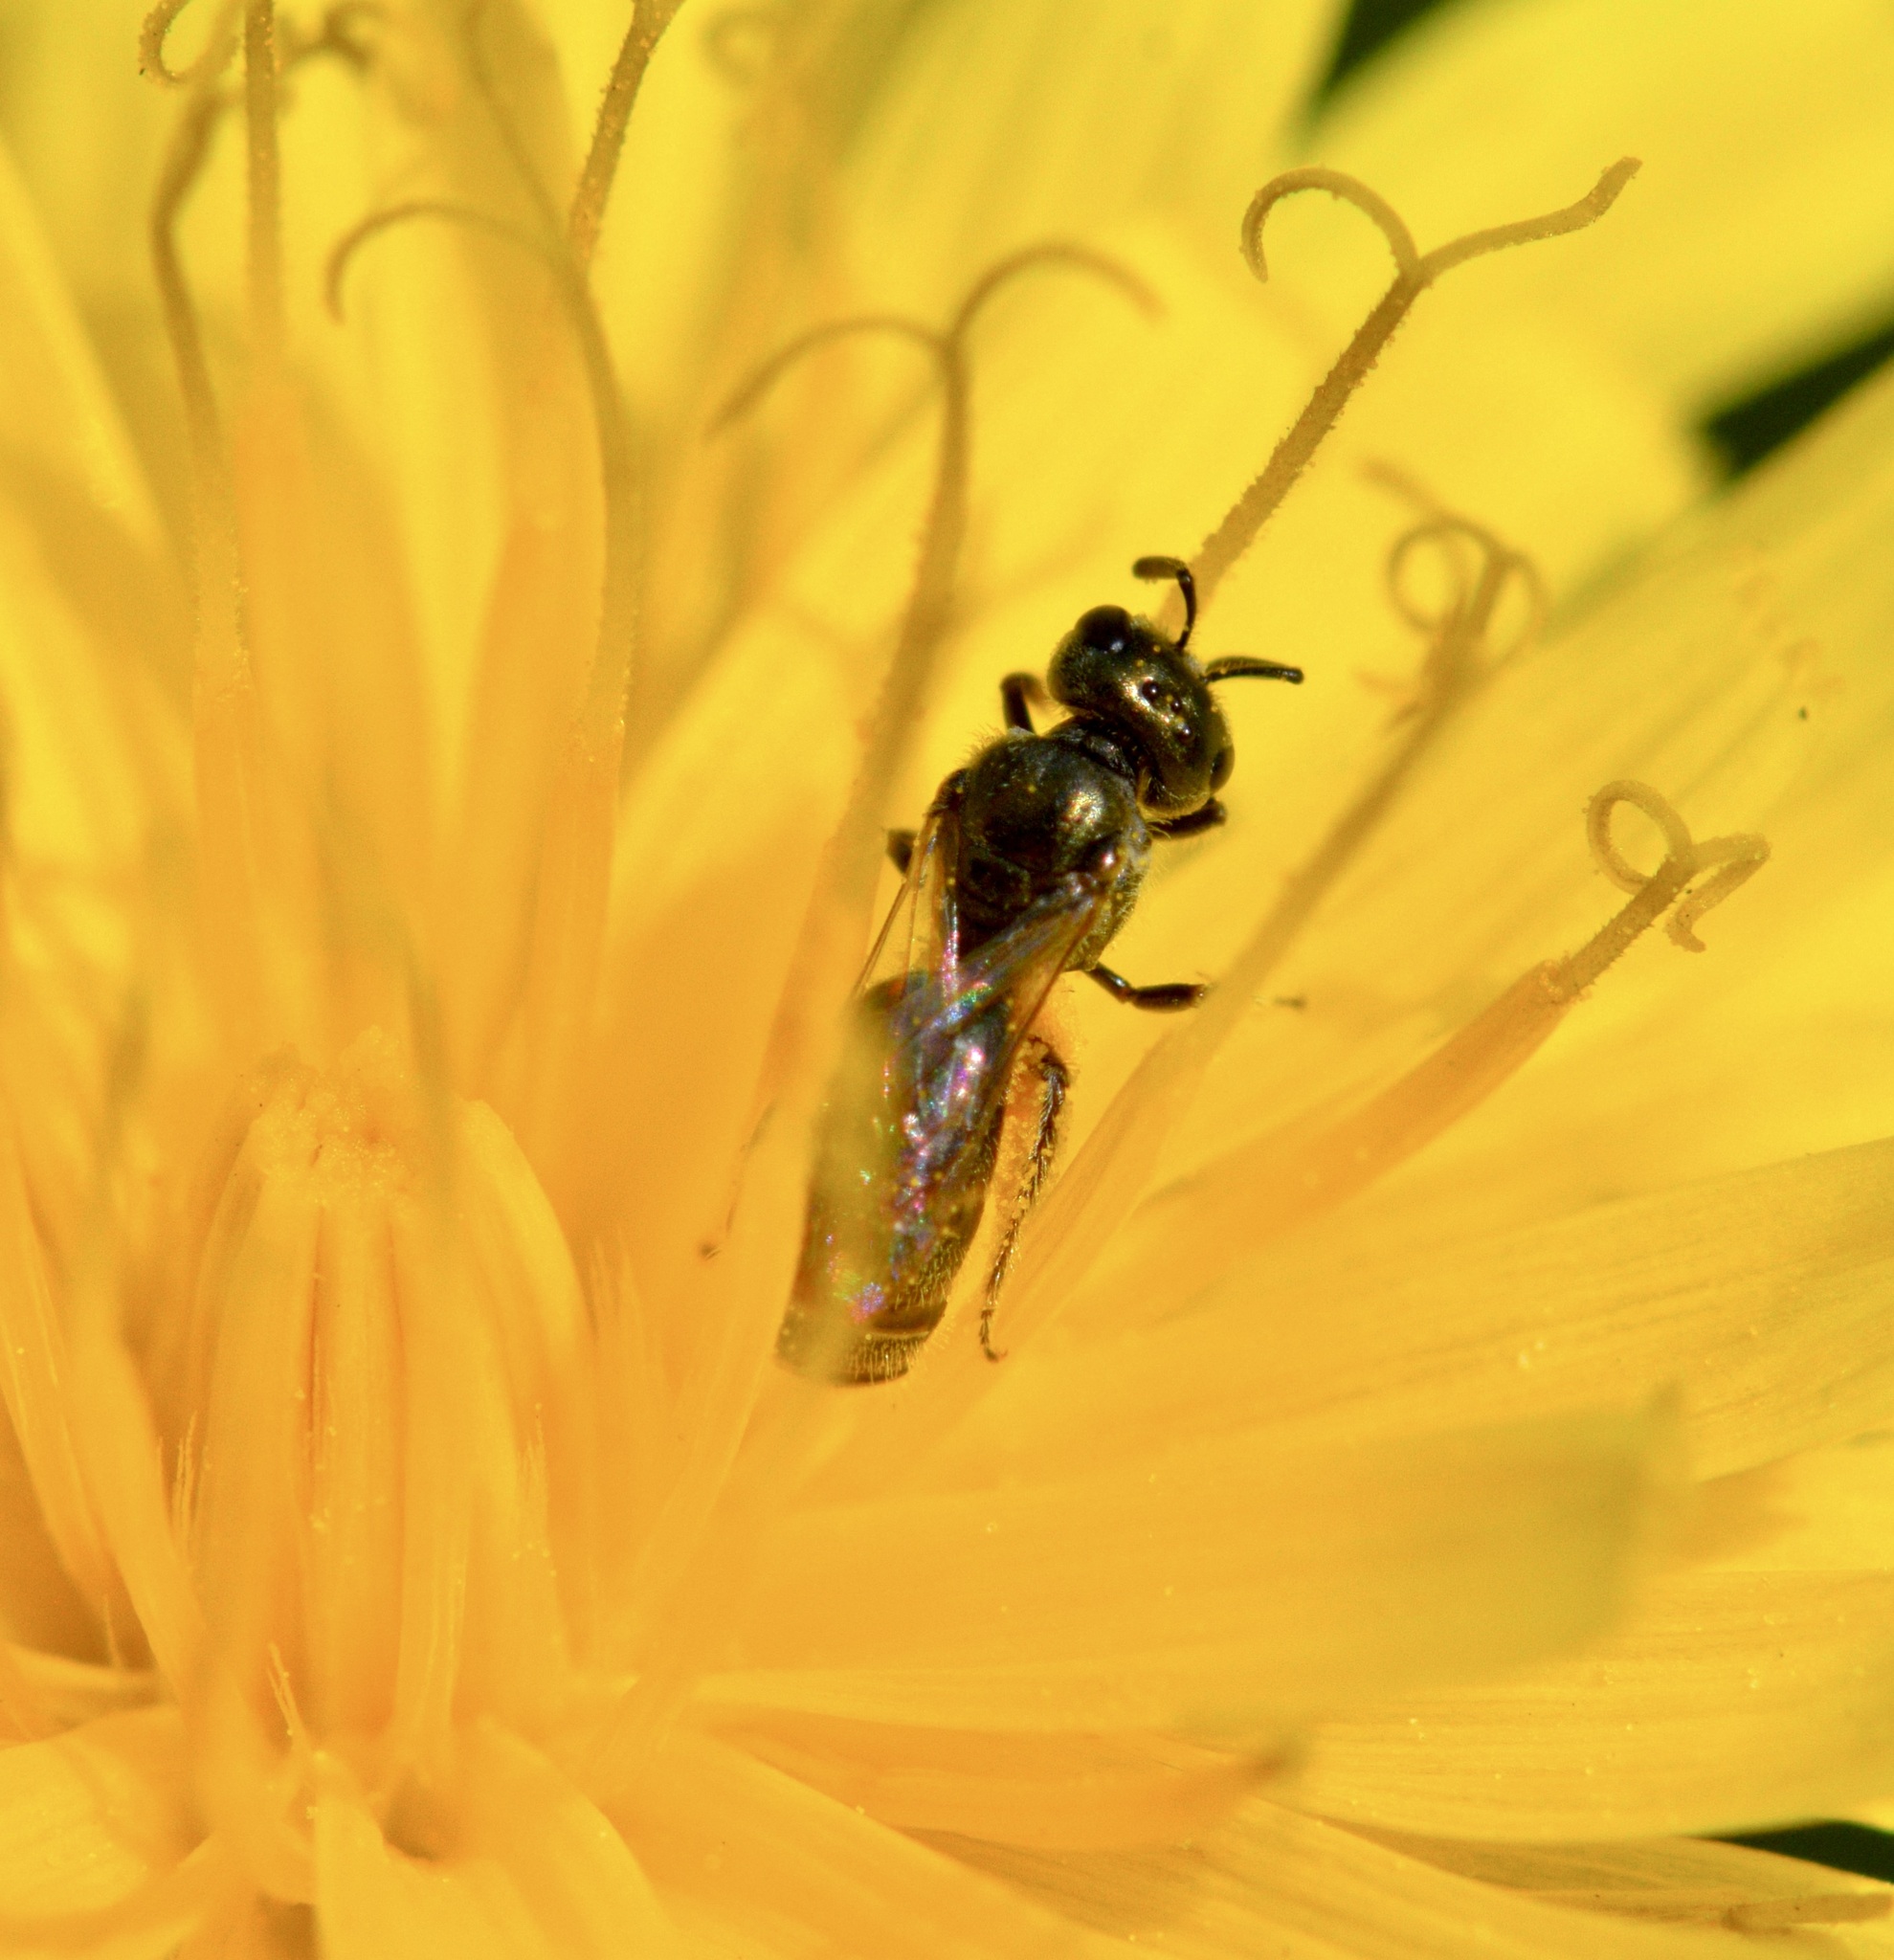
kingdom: Animalia
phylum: Arthropoda
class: Insecta
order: Hymenoptera
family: Halictidae
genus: Lasioglossum
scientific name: Lasioglossum imitatum
